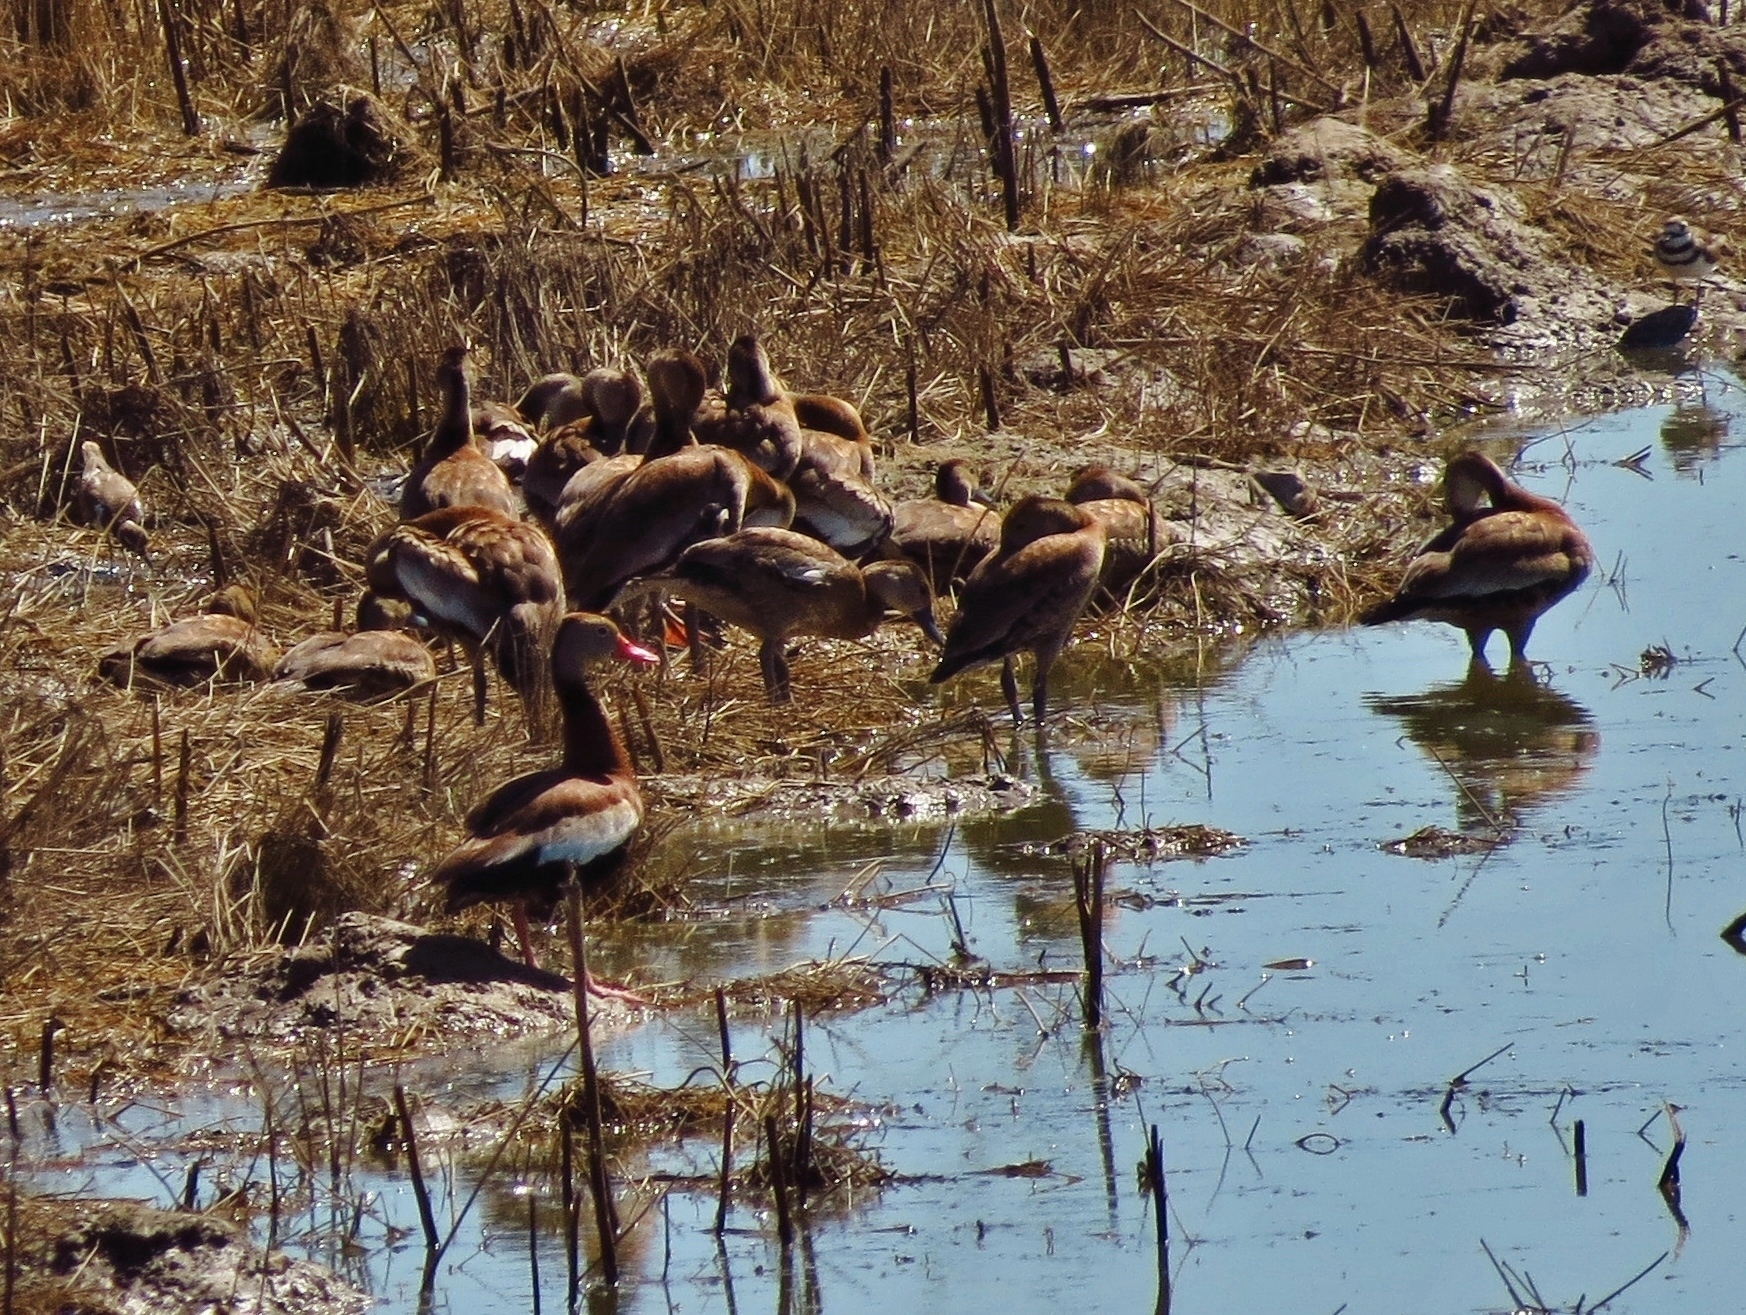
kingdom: Animalia
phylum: Chordata
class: Aves
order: Anseriformes
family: Anatidae
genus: Dendrocygna
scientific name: Dendrocygna autumnalis
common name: Black-bellied whistling duck
